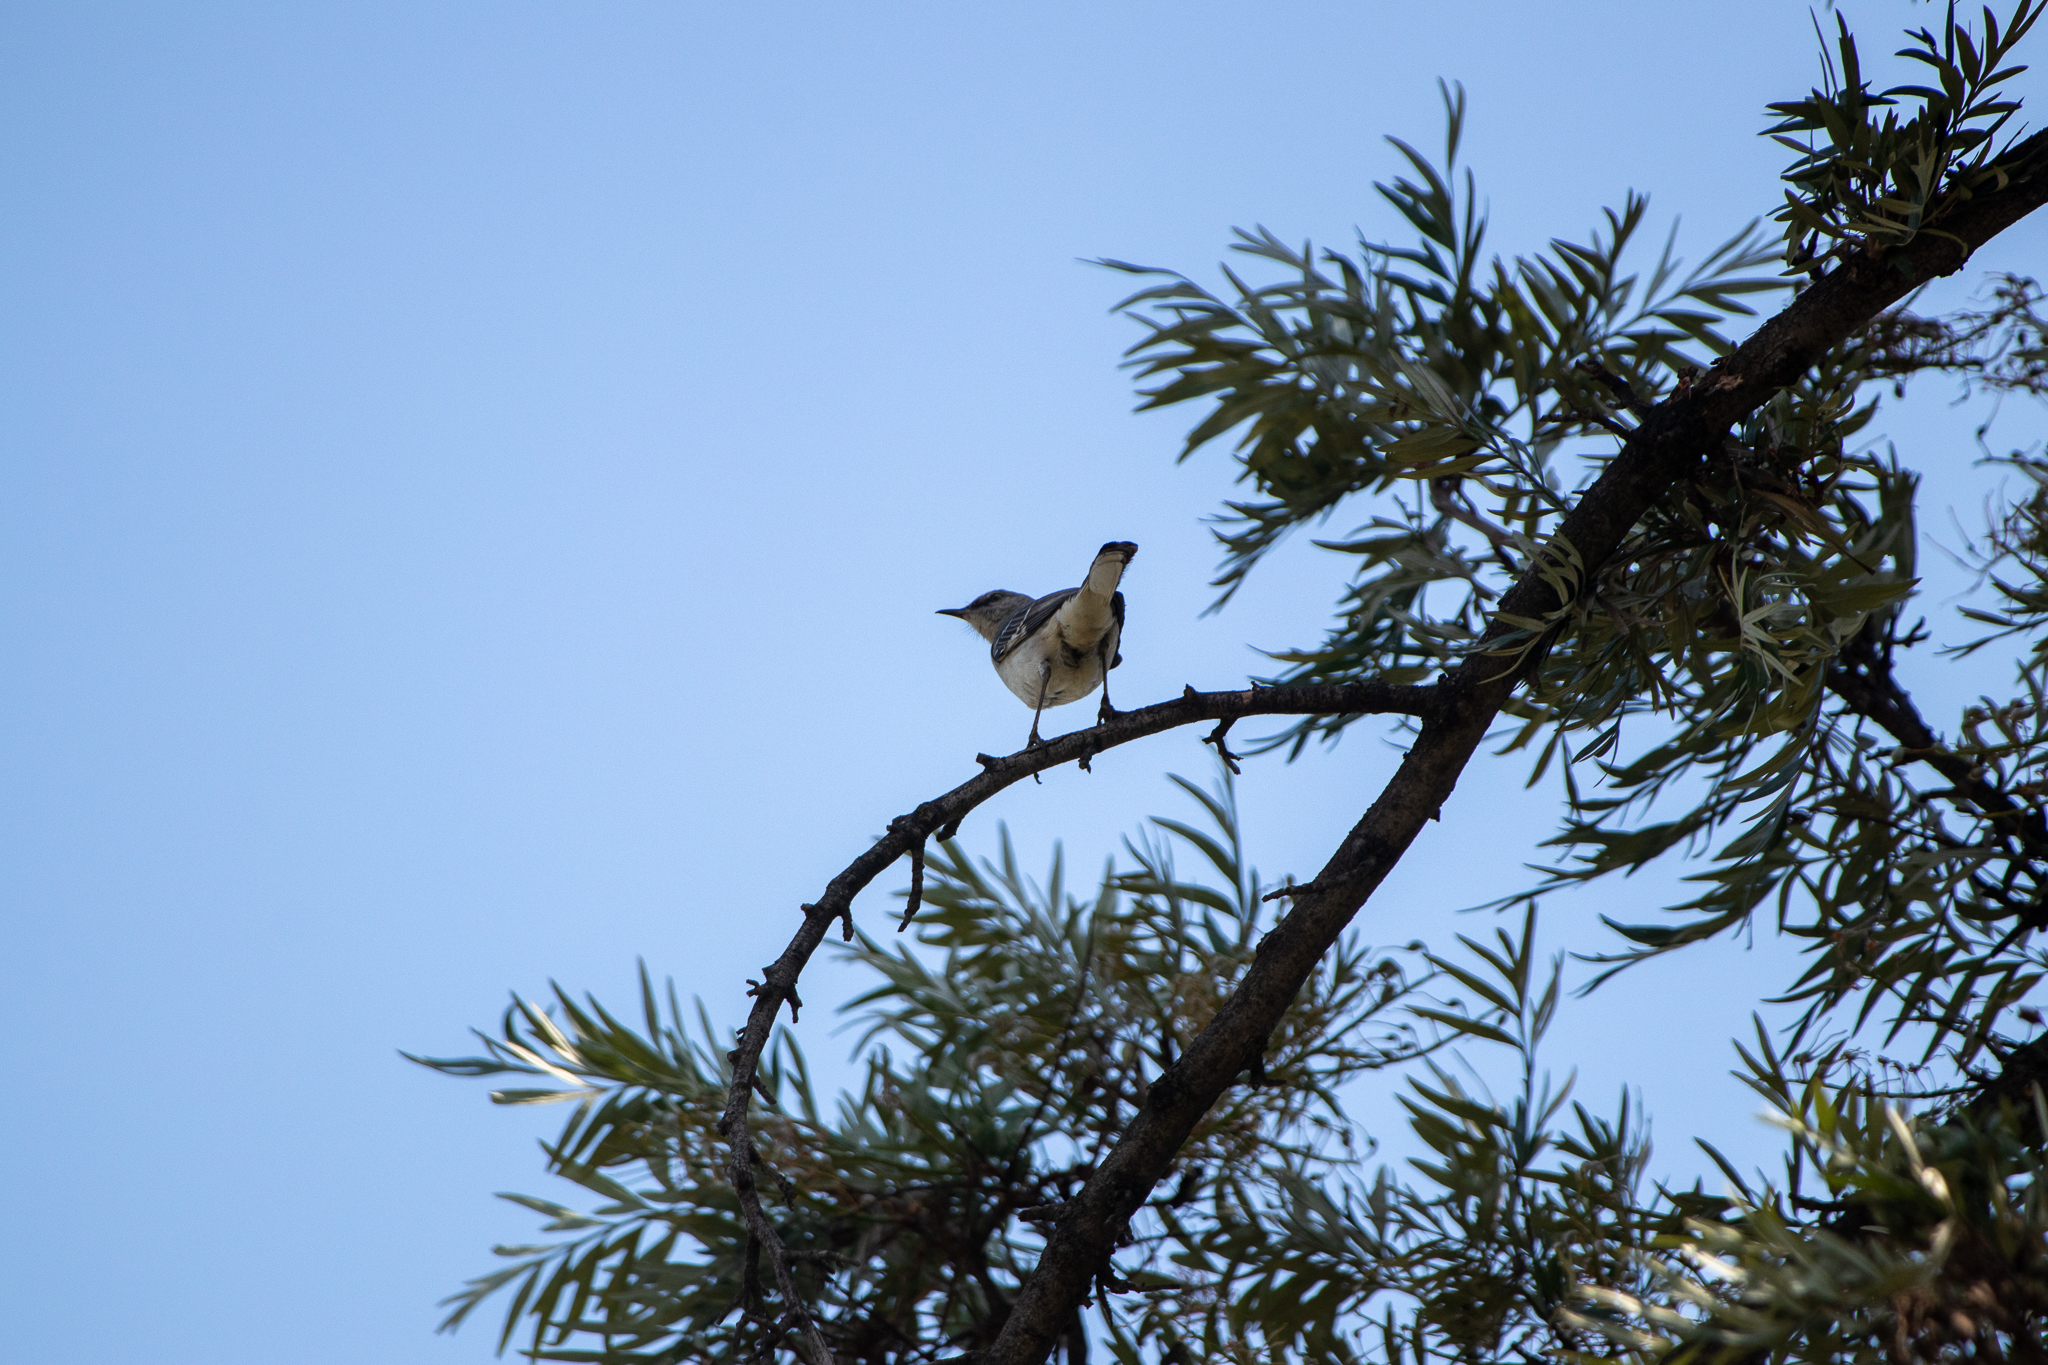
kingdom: Animalia
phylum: Chordata
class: Aves
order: Passeriformes
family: Mimidae
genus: Mimus
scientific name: Mimus polyglottos
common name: Northern mockingbird
